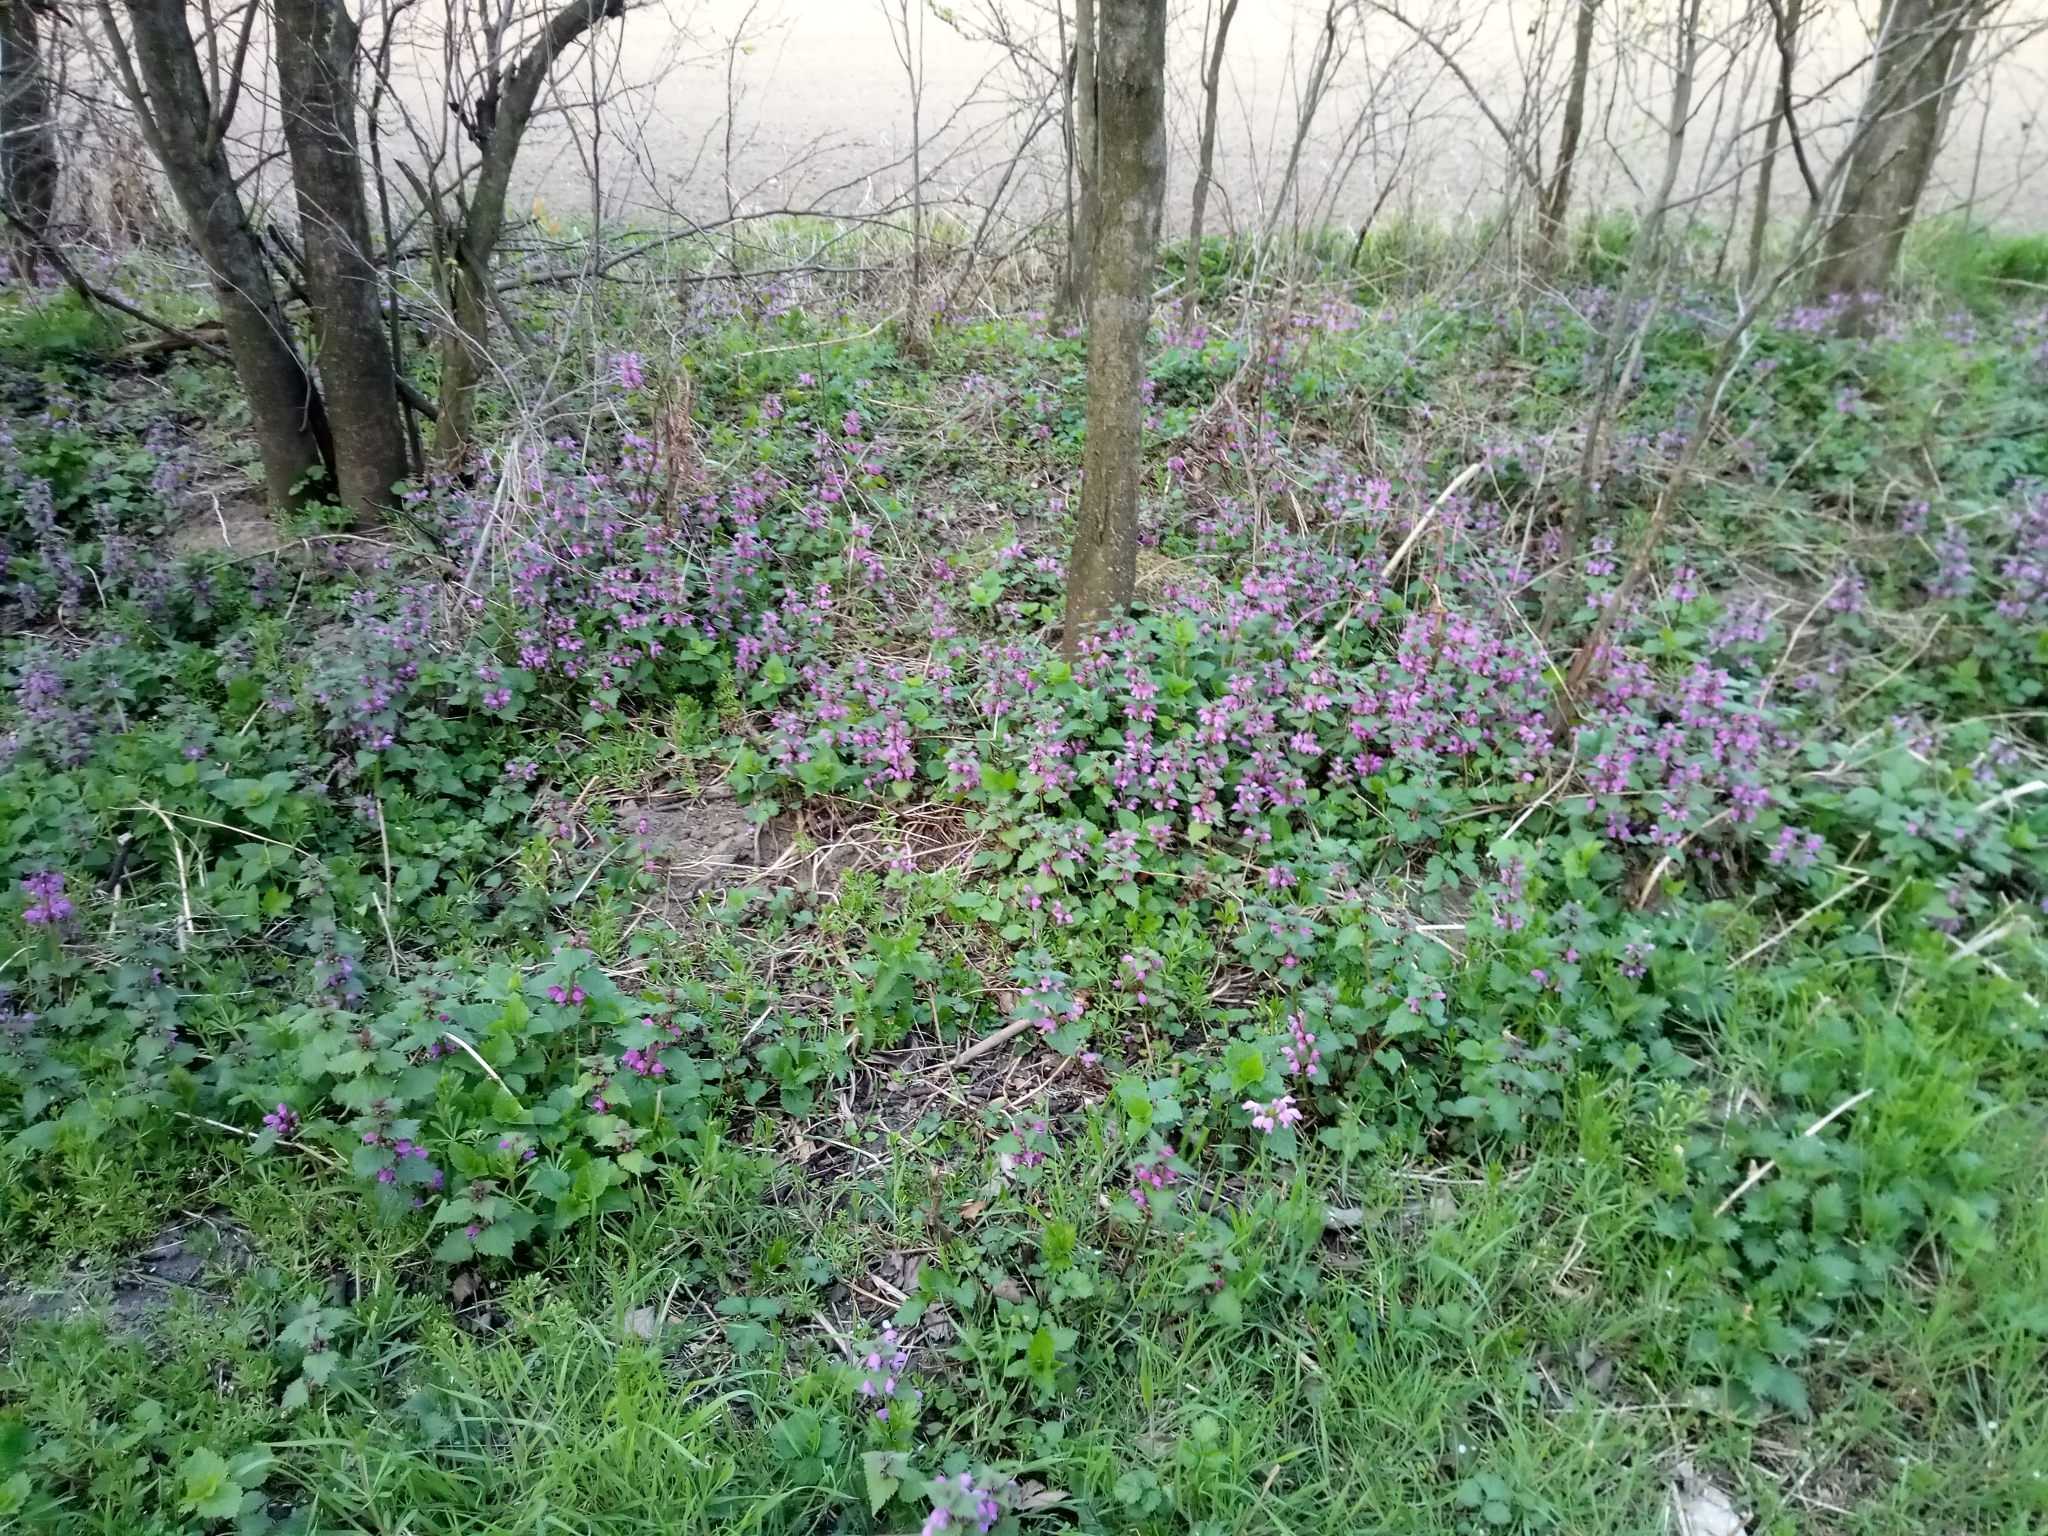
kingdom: Plantae
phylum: Tracheophyta
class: Magnoliopsida
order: Lamiales
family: Lamiaceae
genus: Lamium
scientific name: Lamium maculatum
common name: Spotted dead-nettle
